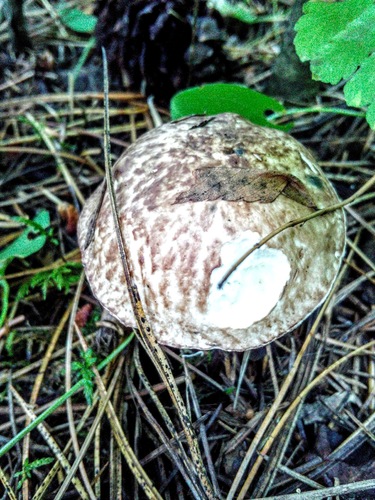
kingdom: Fungi
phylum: Basidiomycota
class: Agaricomycetes
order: Boletales
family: Suillaceae
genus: Suillus
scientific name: Suillus placidus
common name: Slippery white bolete
